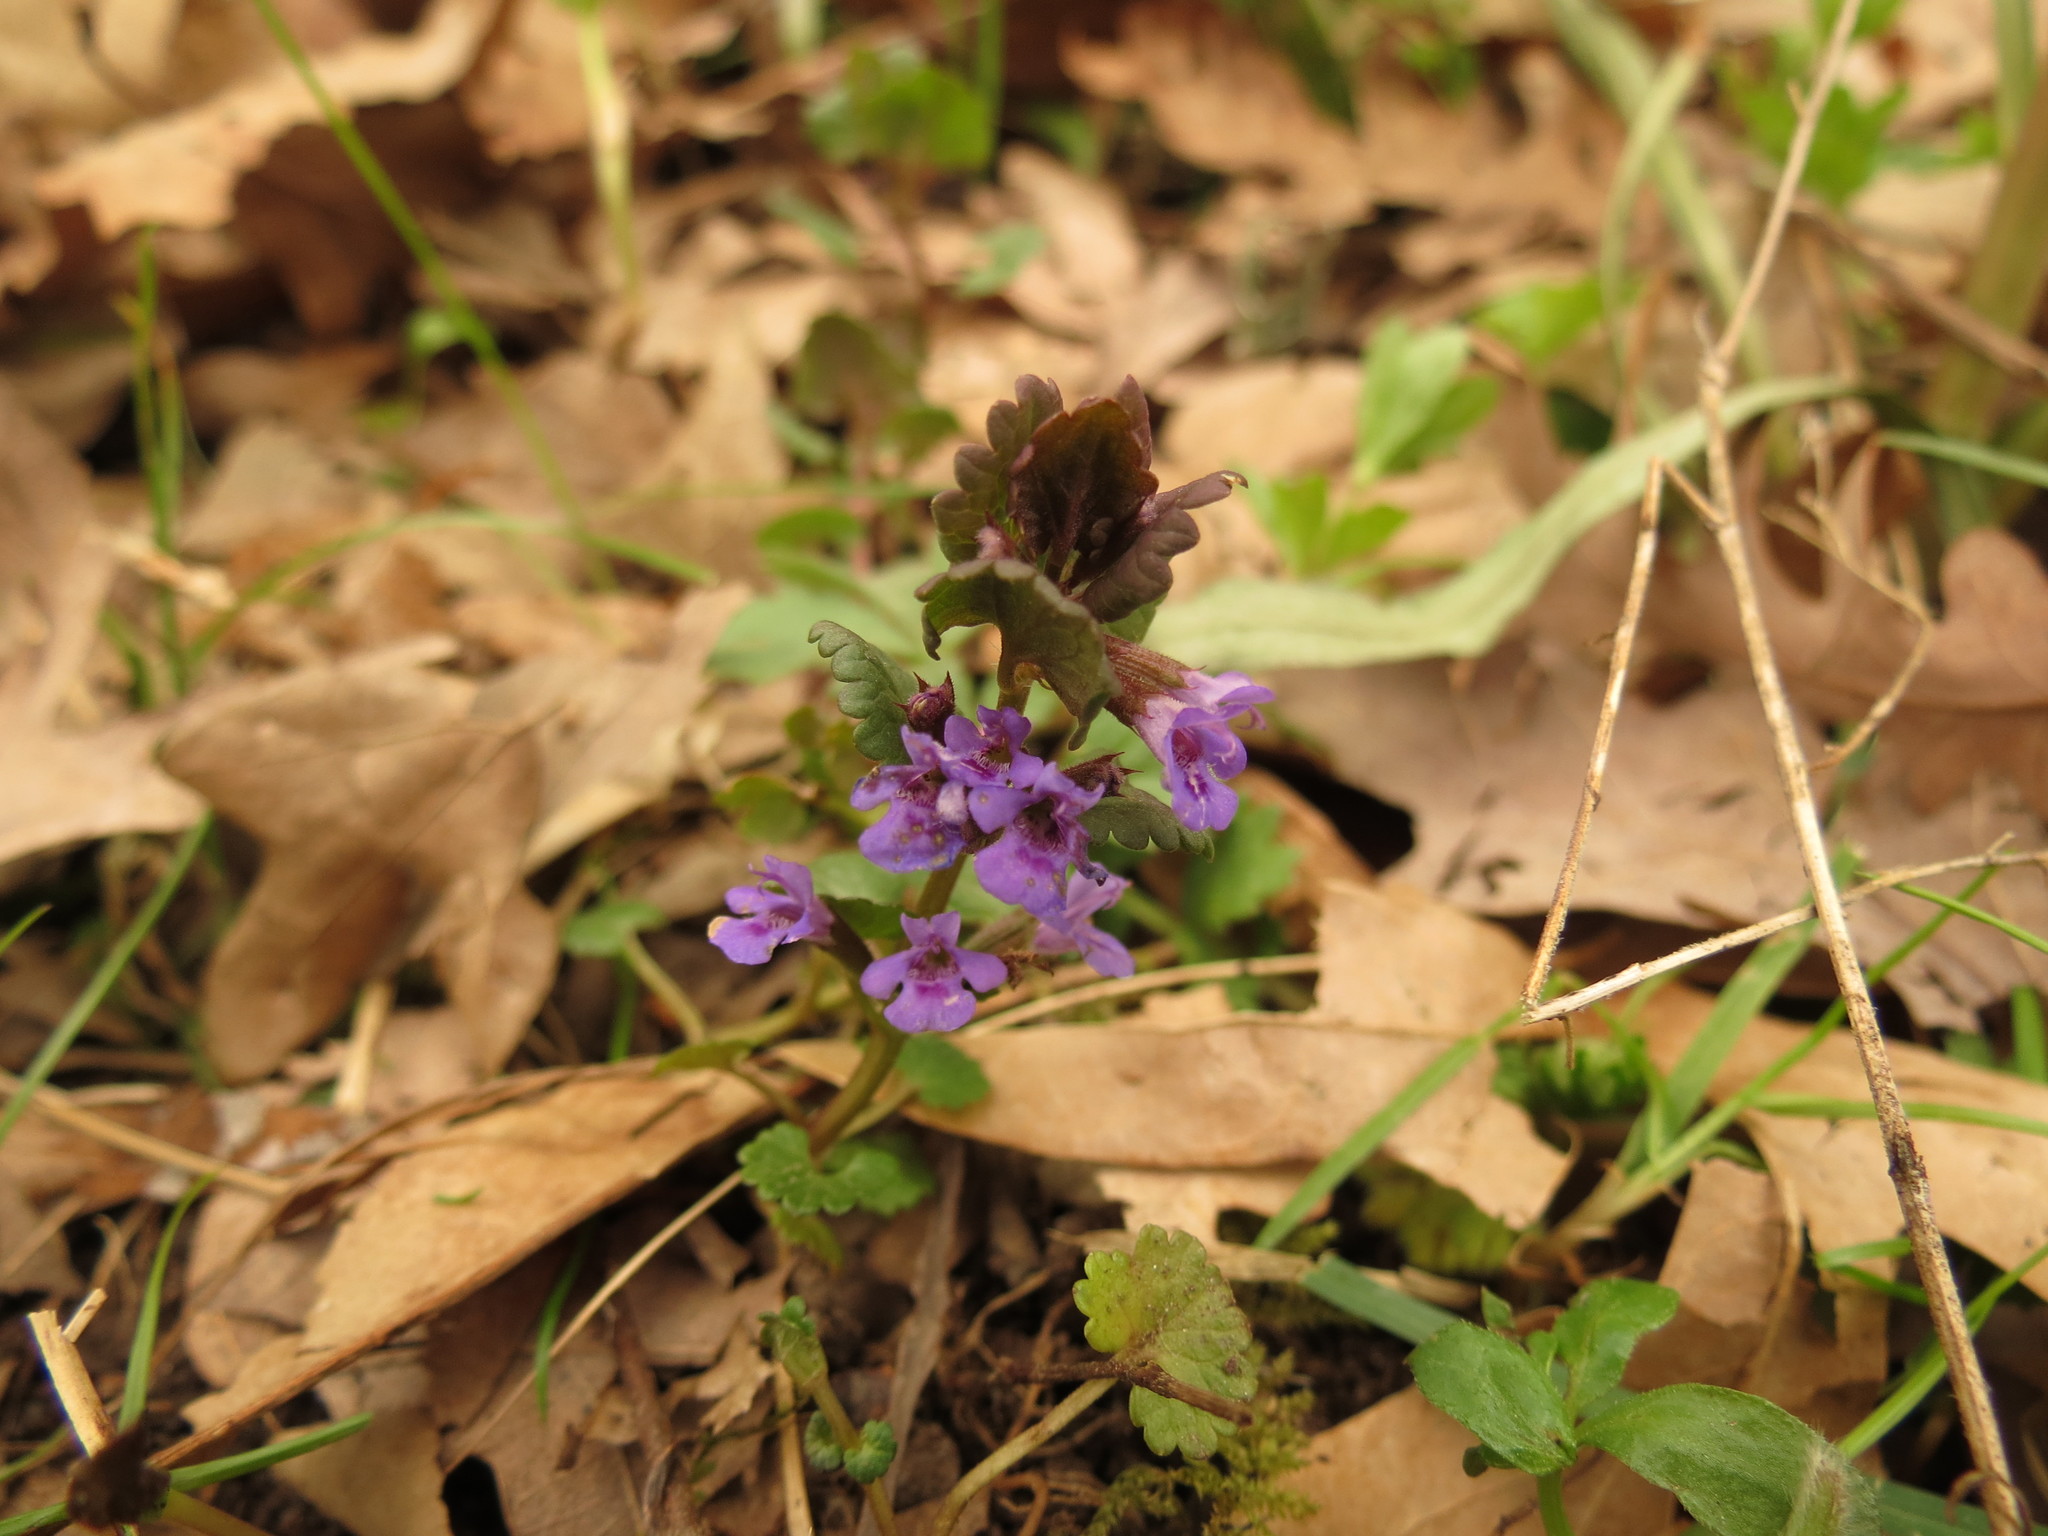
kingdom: Plantae
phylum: Tracheophyta
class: Magnoliopsida
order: Lamiales
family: Lamiaceae
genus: Glechoma
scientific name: Glechoma hederacea
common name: Ground ivy
